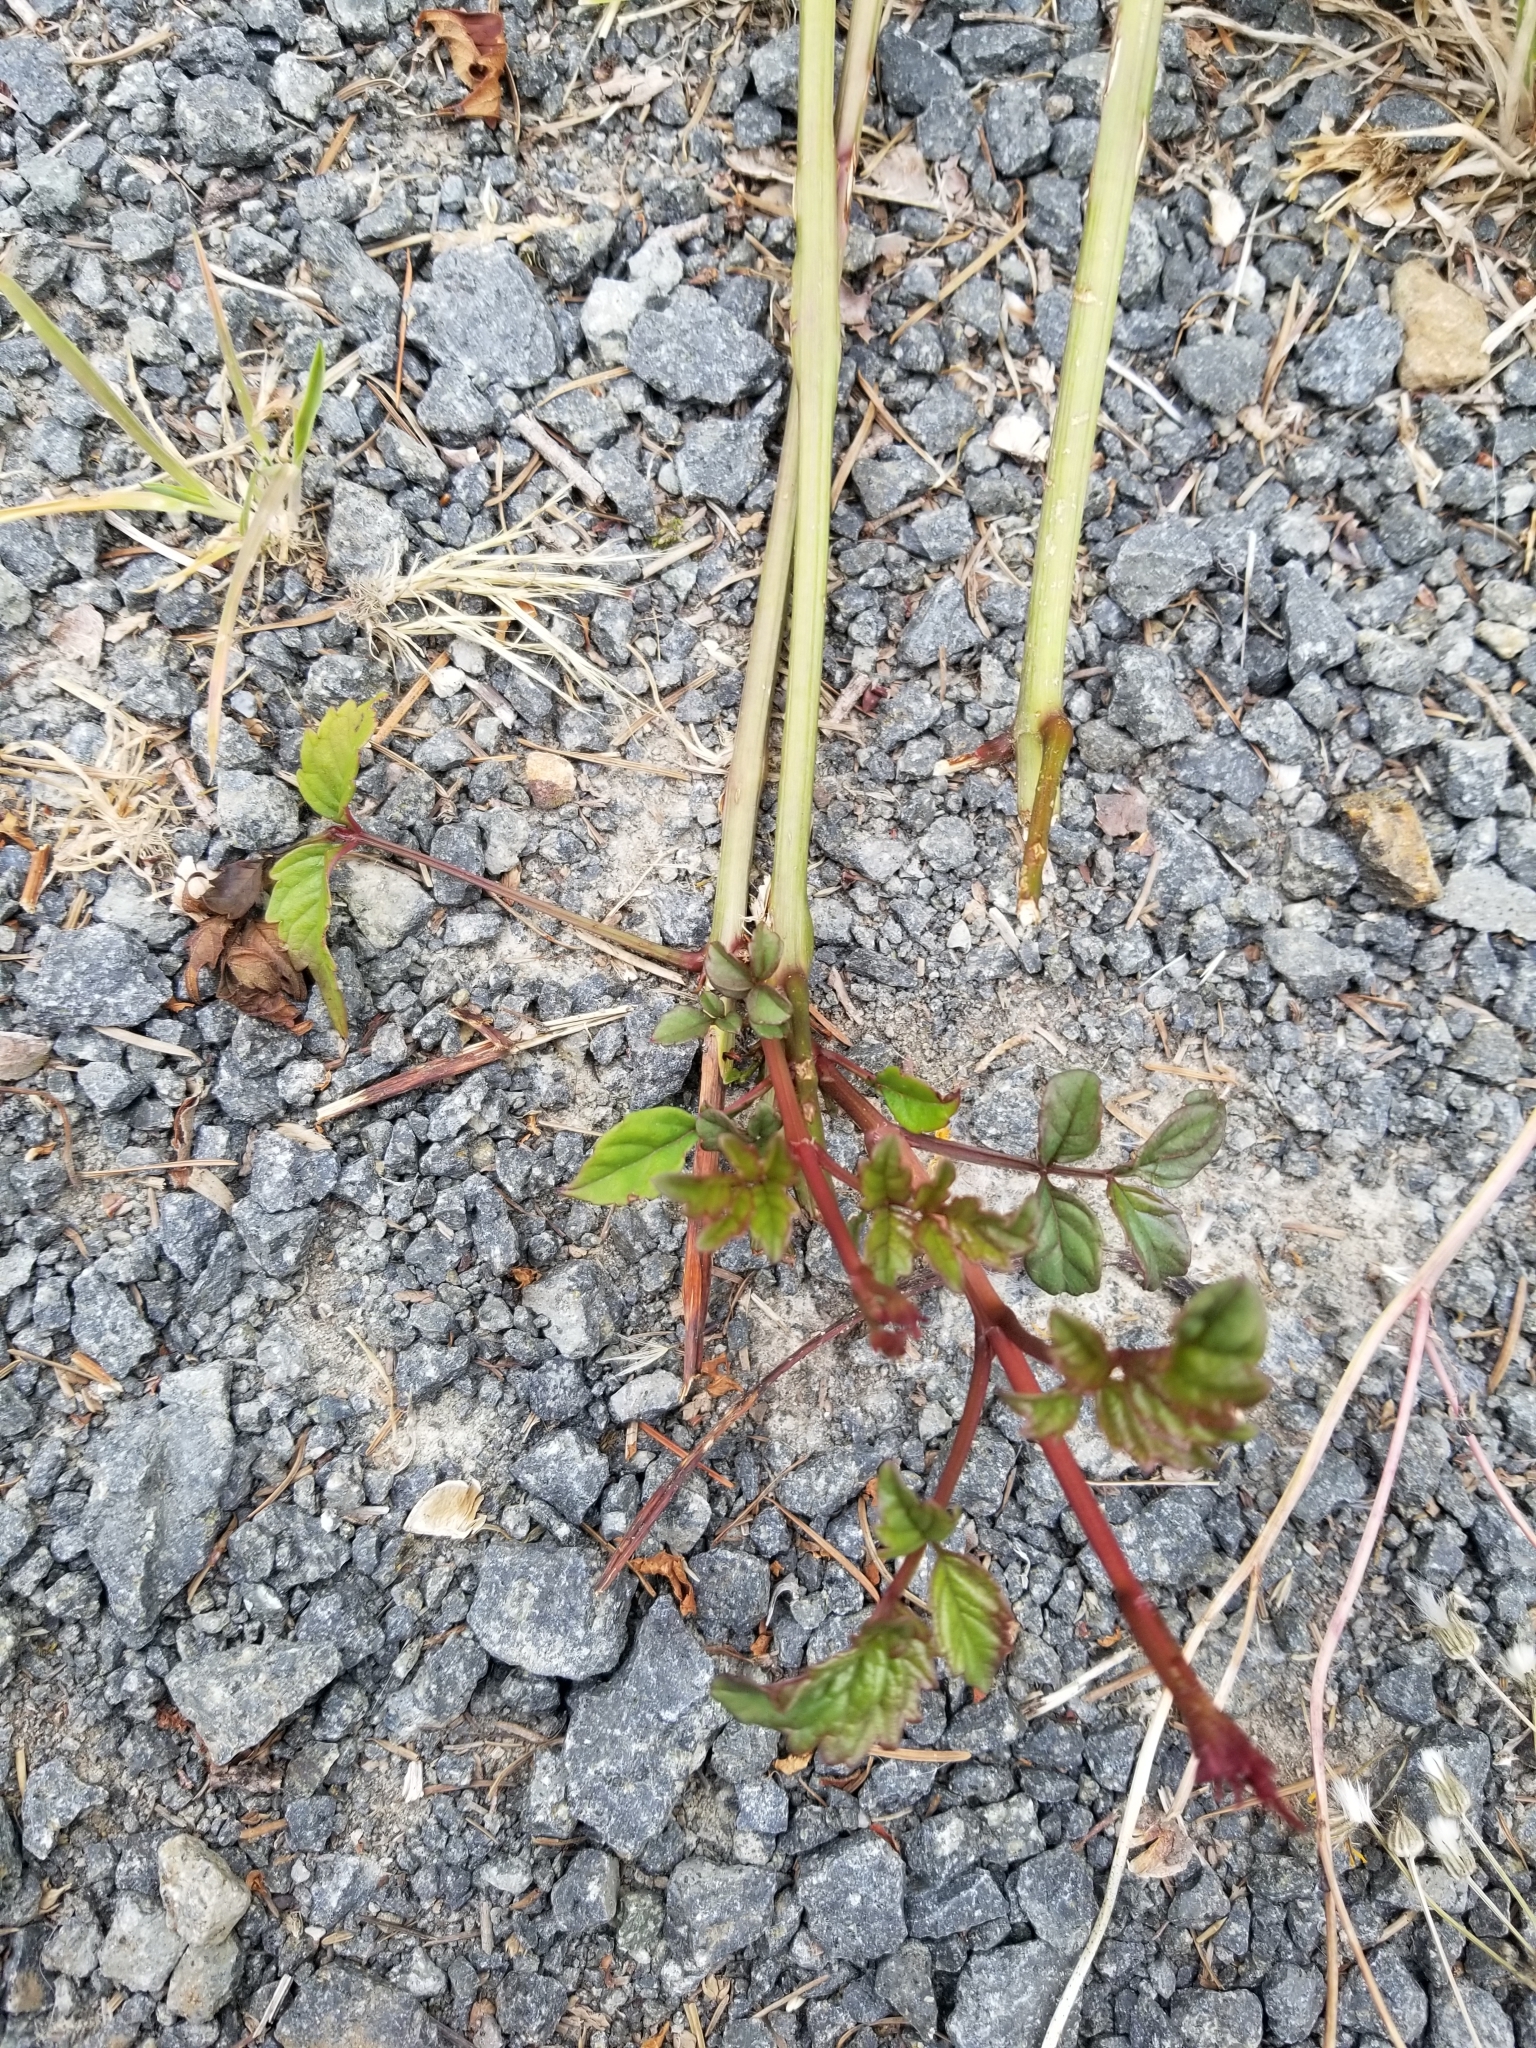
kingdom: Plantae
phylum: Tracheophyta
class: Magnoliopsida
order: Lamiales
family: Bignoniaceae
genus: Campsis
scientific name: Campsis radicans
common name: Trumpet-creeper
